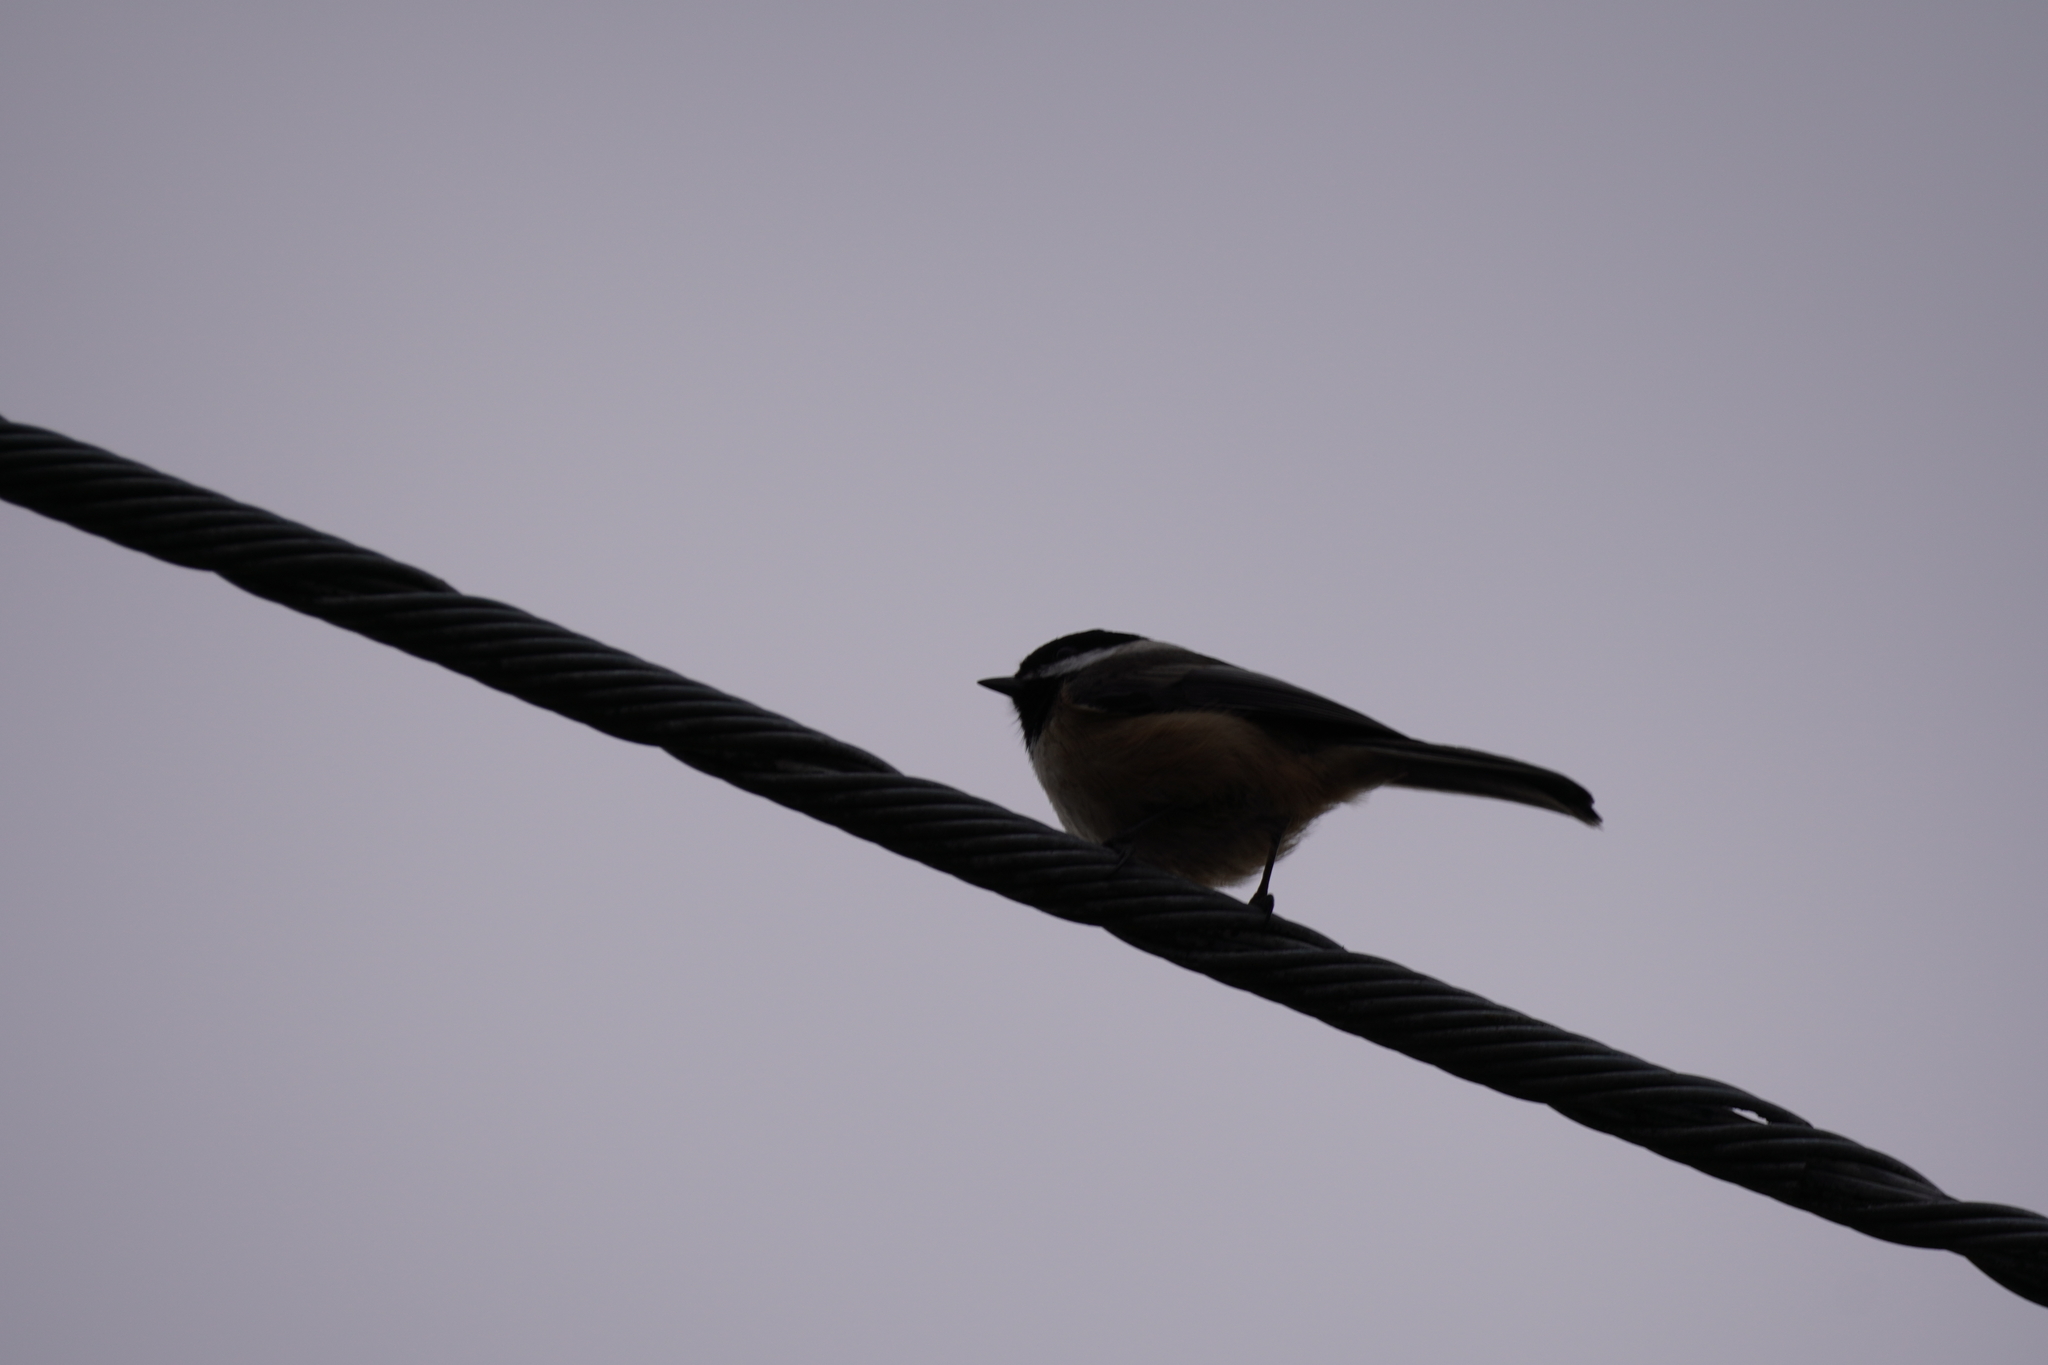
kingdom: Animalia
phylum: Chordata
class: Aves
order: Passeriformes
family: Paridae
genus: Poecile
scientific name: Poecile atricapillus
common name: Black-capped chickadee
